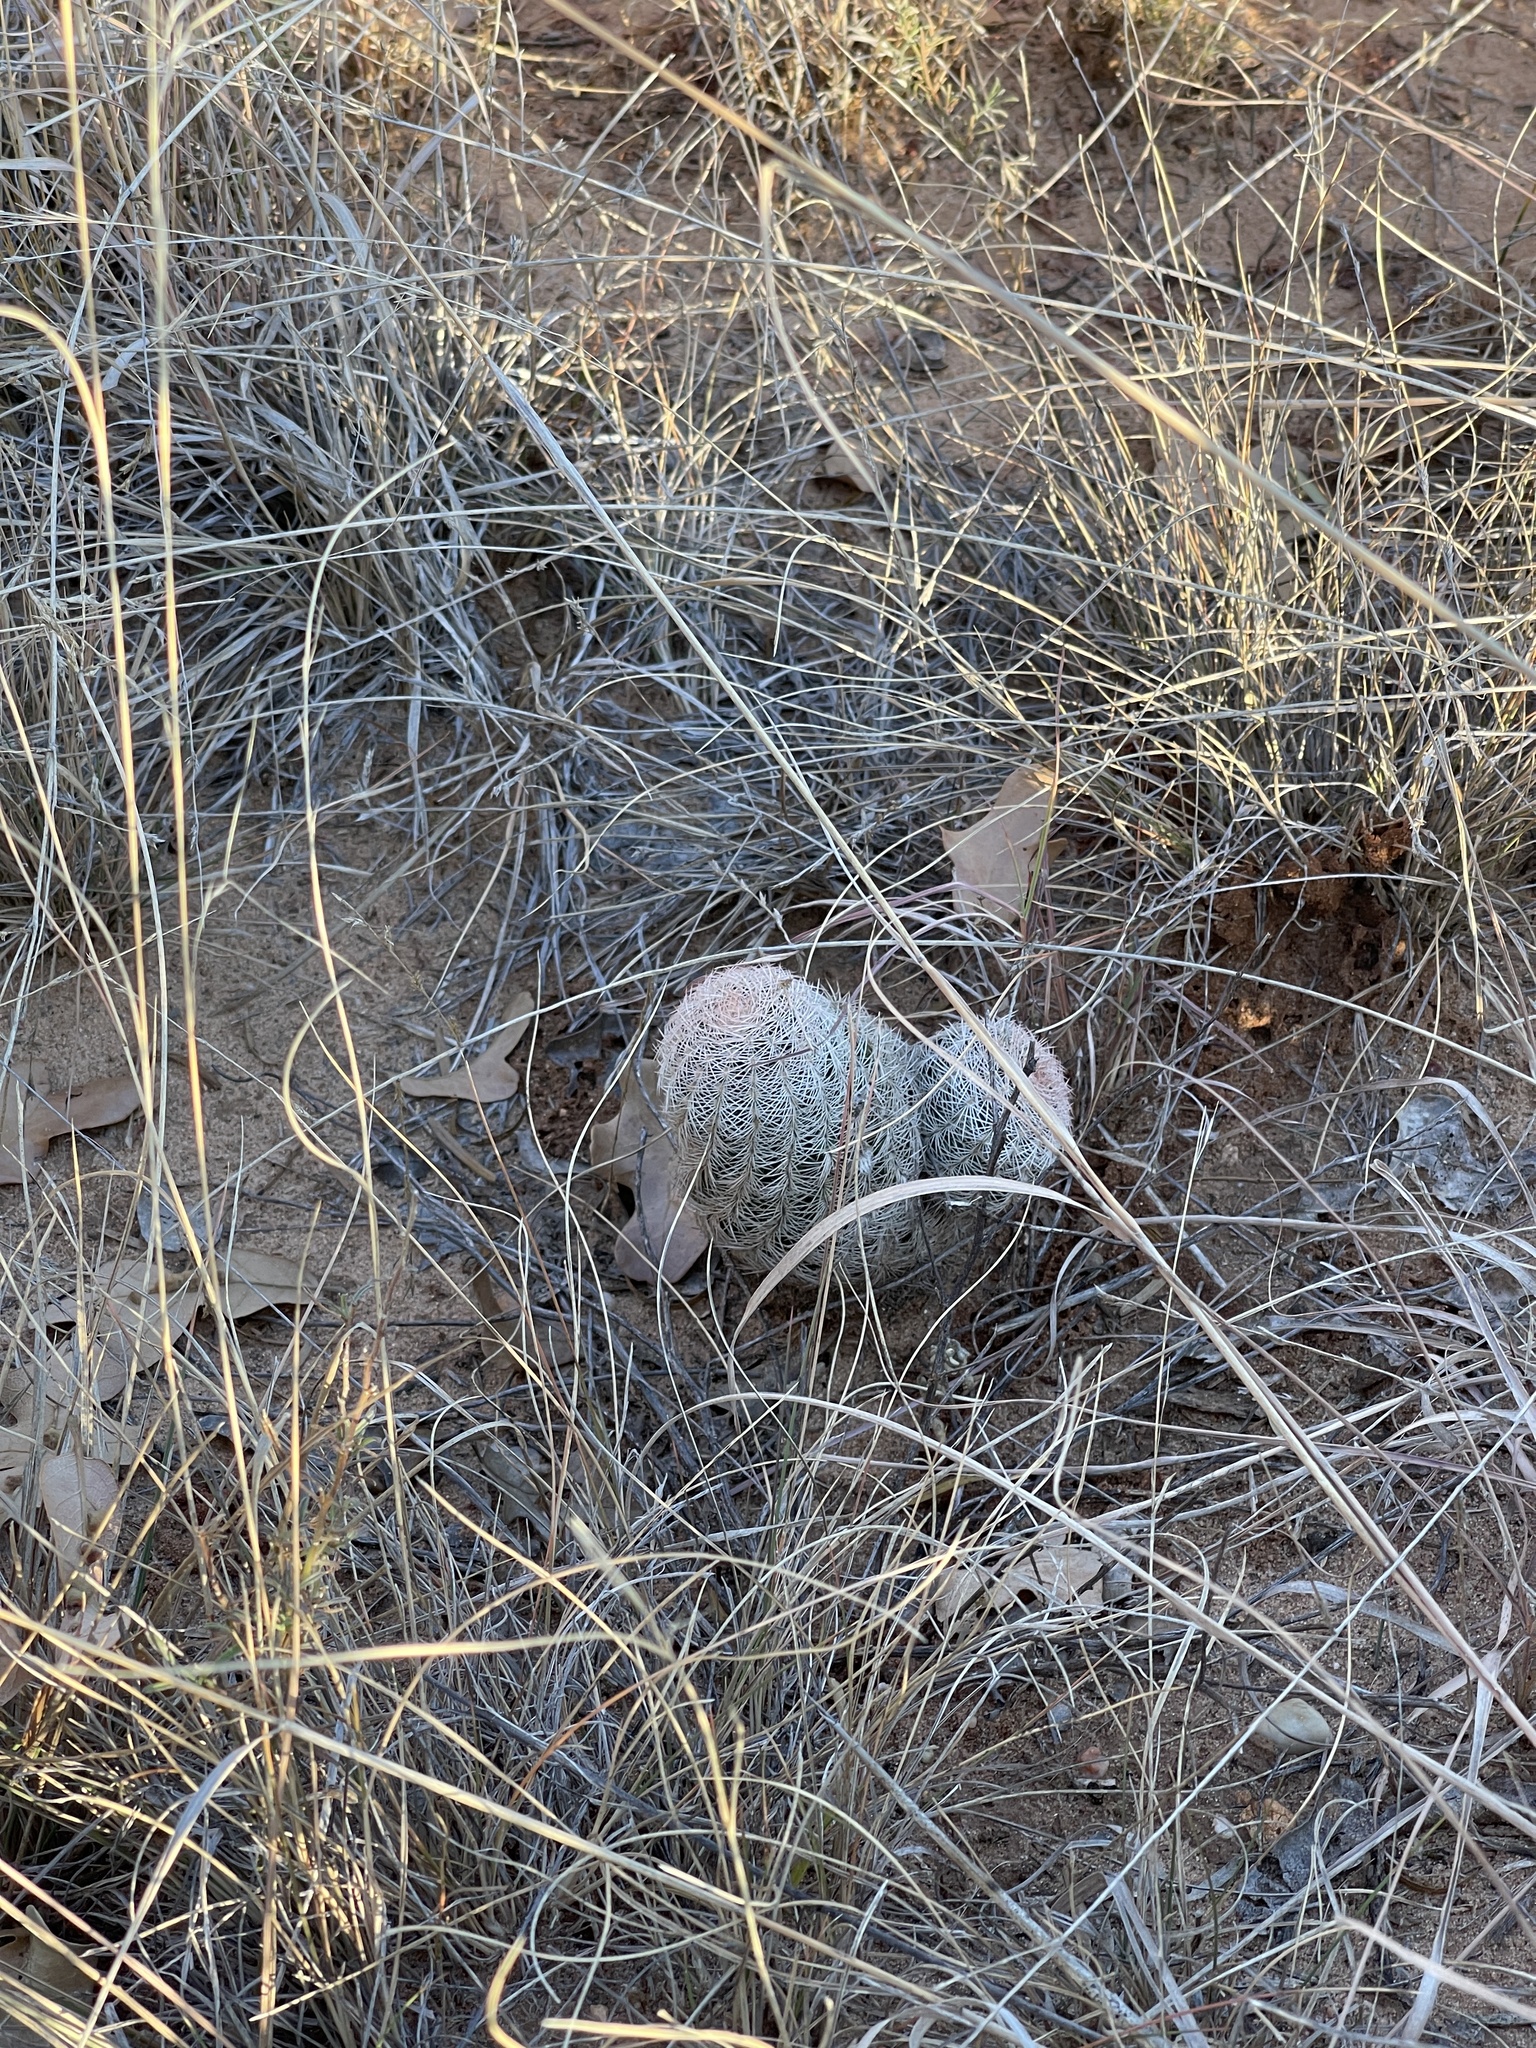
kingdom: Plantae
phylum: Tracheophyta
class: Magnoliopsida
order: Caryophyllales
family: Cactaceae
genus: Echinocereus
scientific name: Echinocereus reichenbachii
